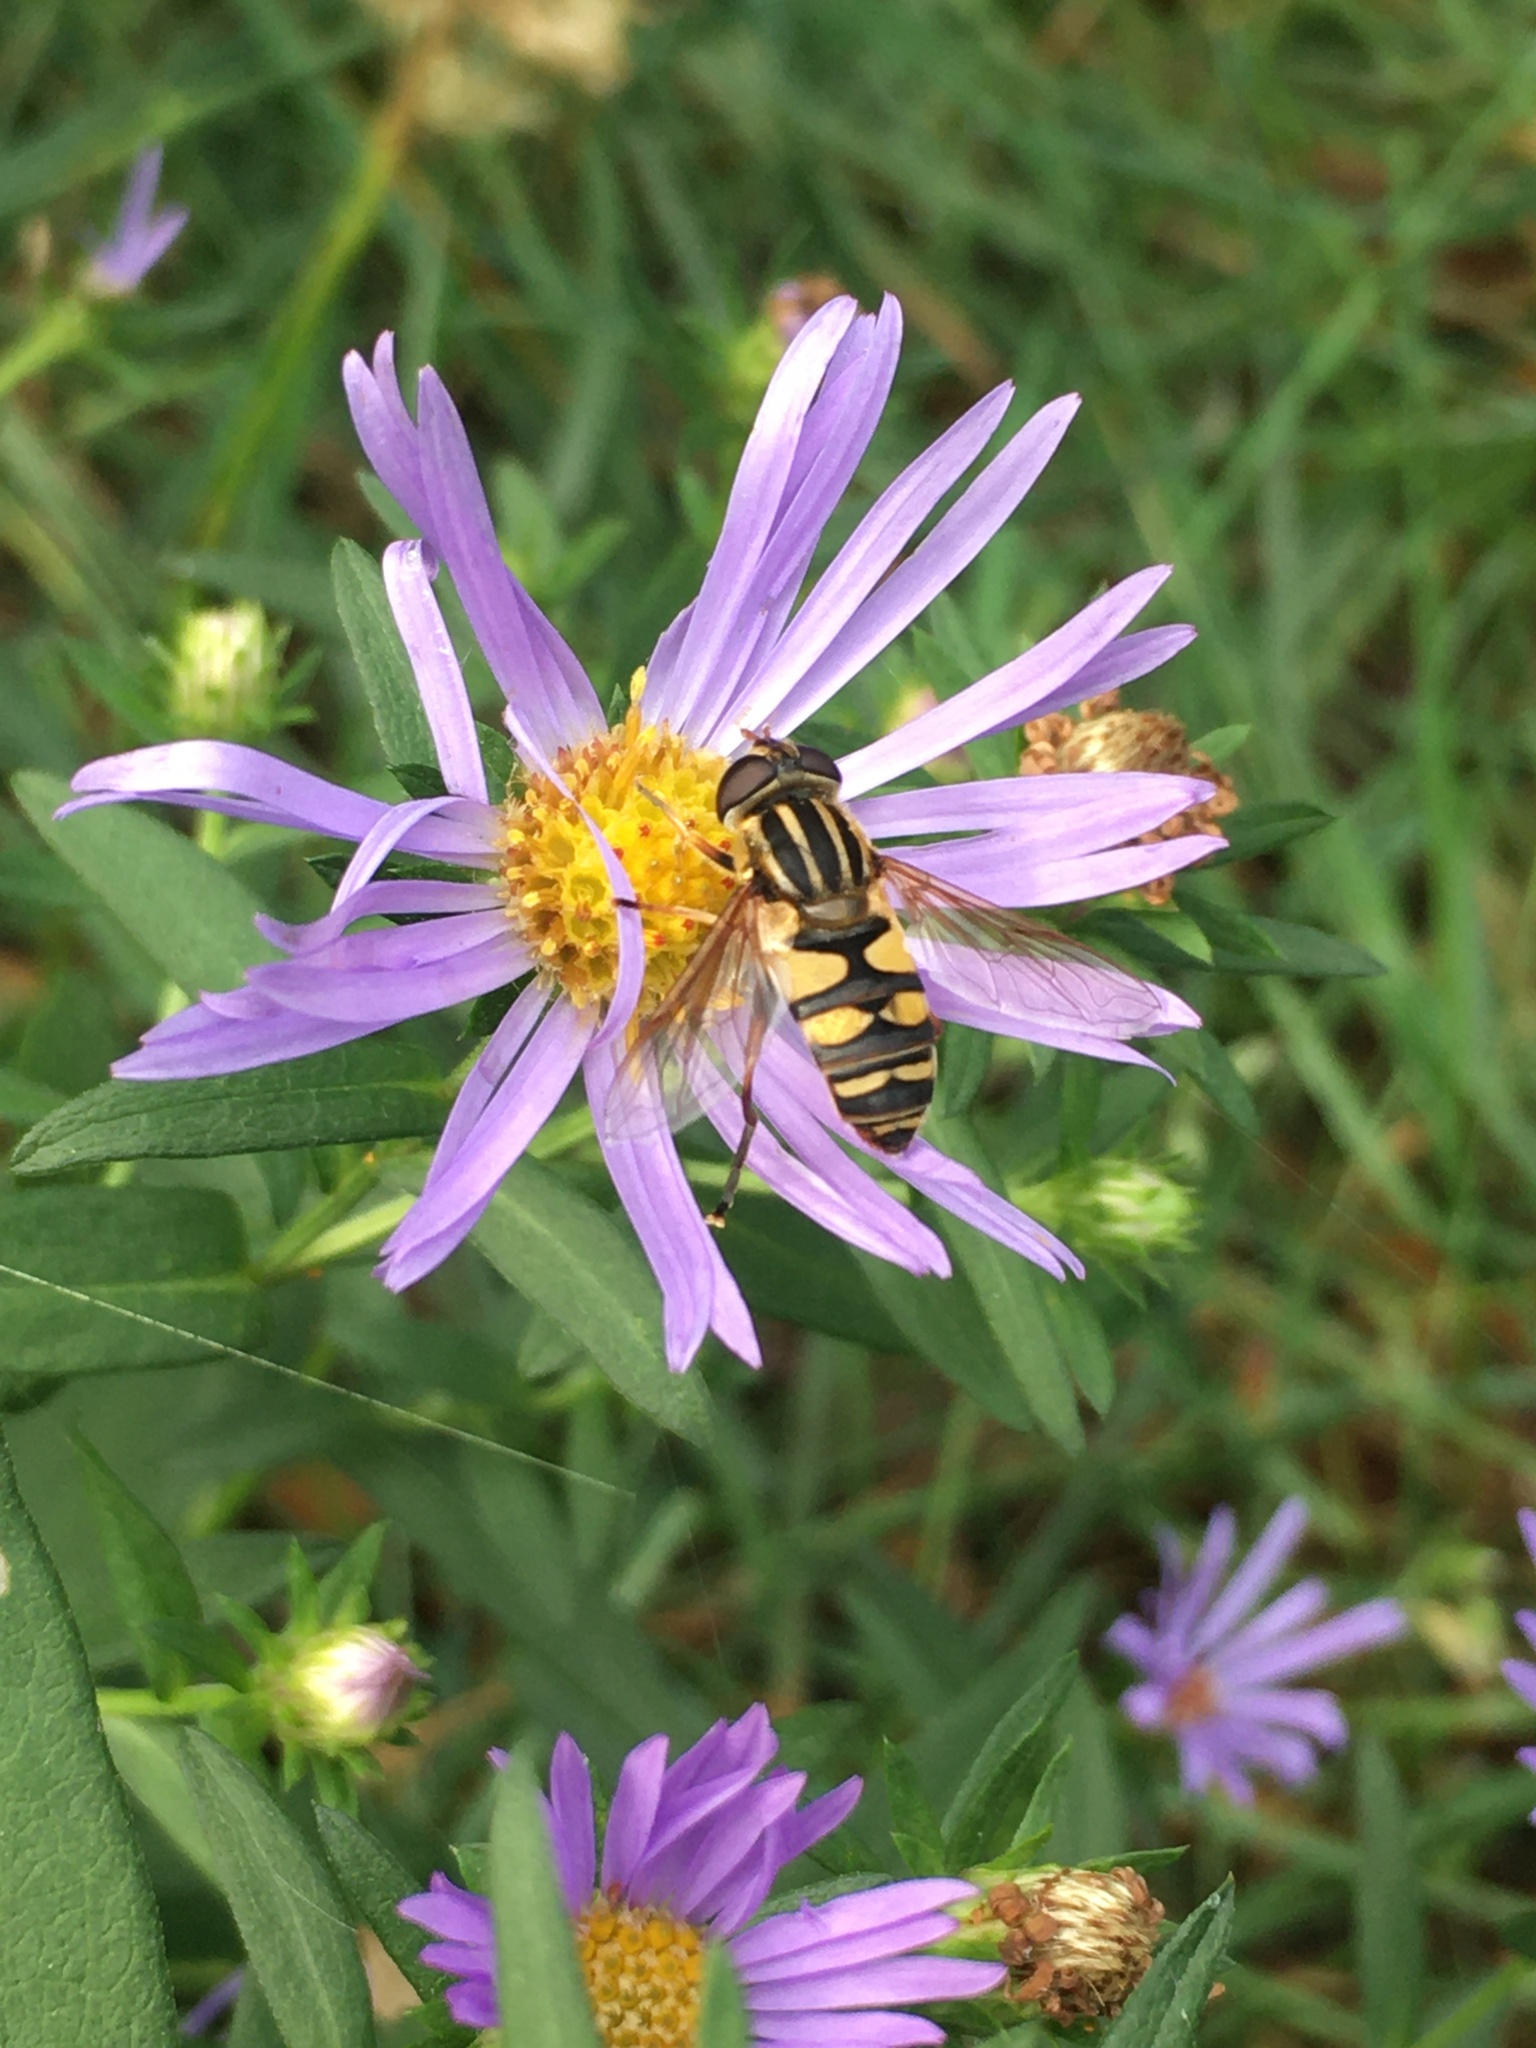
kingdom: Animalia
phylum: Arthropoda
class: Insecta
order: Diptera
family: Syrphidae
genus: Helophilus
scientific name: Helophilus fasciatus
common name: Narrow-headed marsh fly
